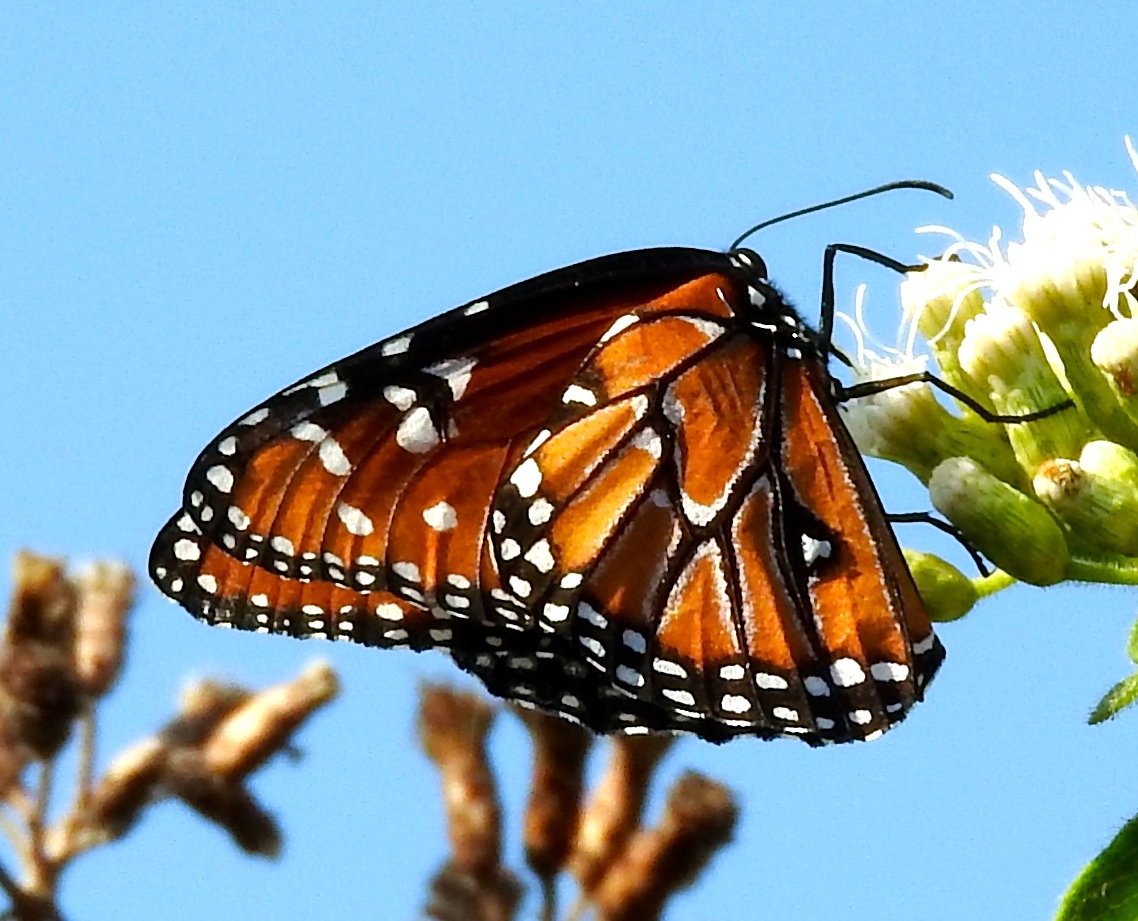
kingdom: Animalia
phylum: Arthropoda
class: Insecta
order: Lepidoptera
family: Nymphalidae
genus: Danaus
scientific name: Danaus gilippus
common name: Queen
